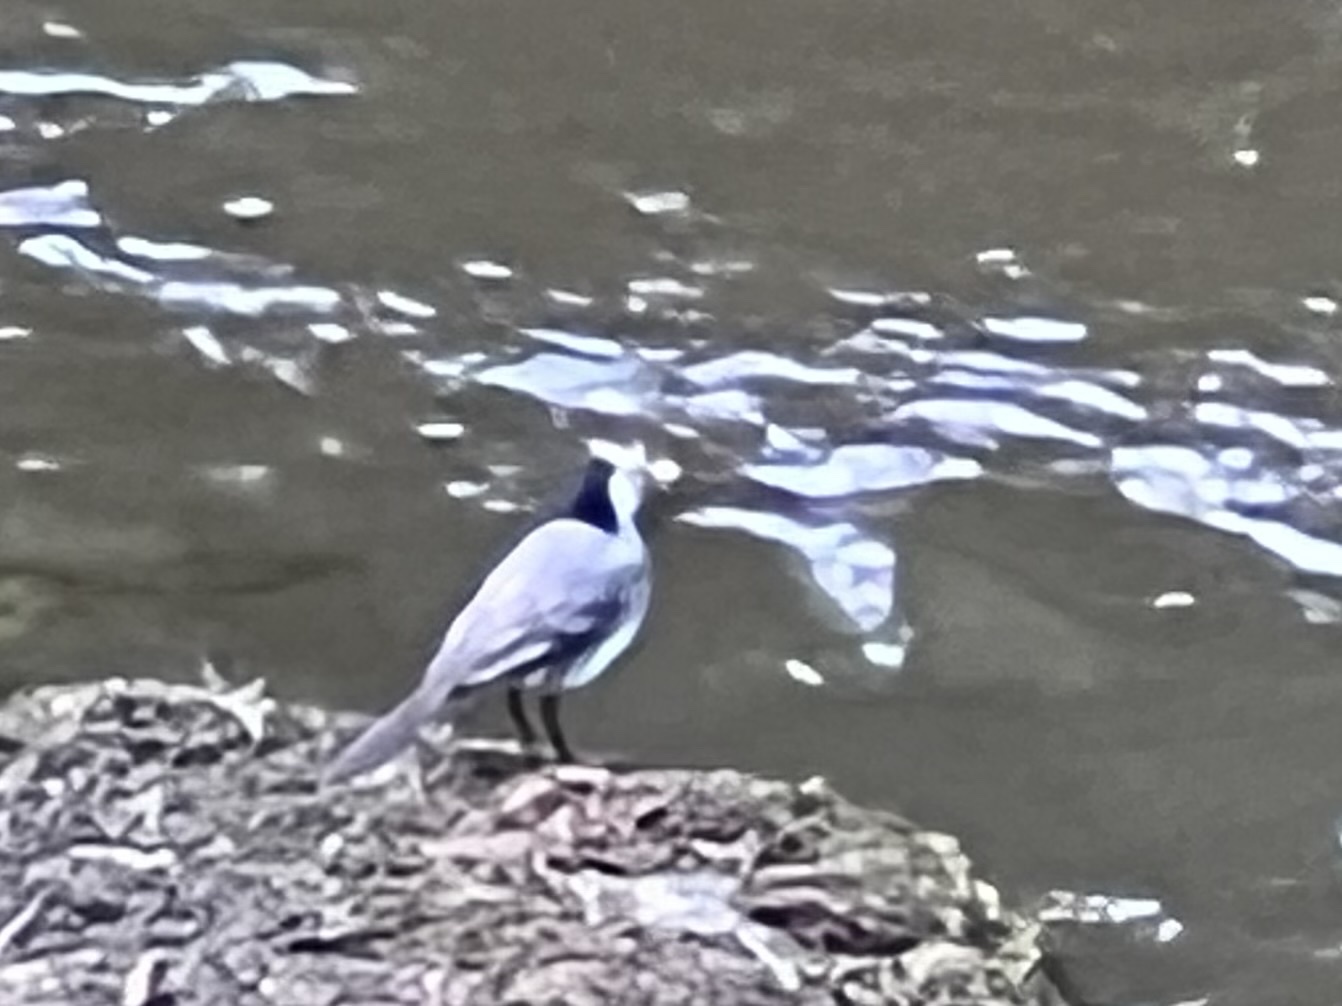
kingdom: Animalia
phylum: Chordata
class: Aves
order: Passeriformes
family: Motacillidae
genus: Motacilla
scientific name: Motacilla alba
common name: White wagtail
